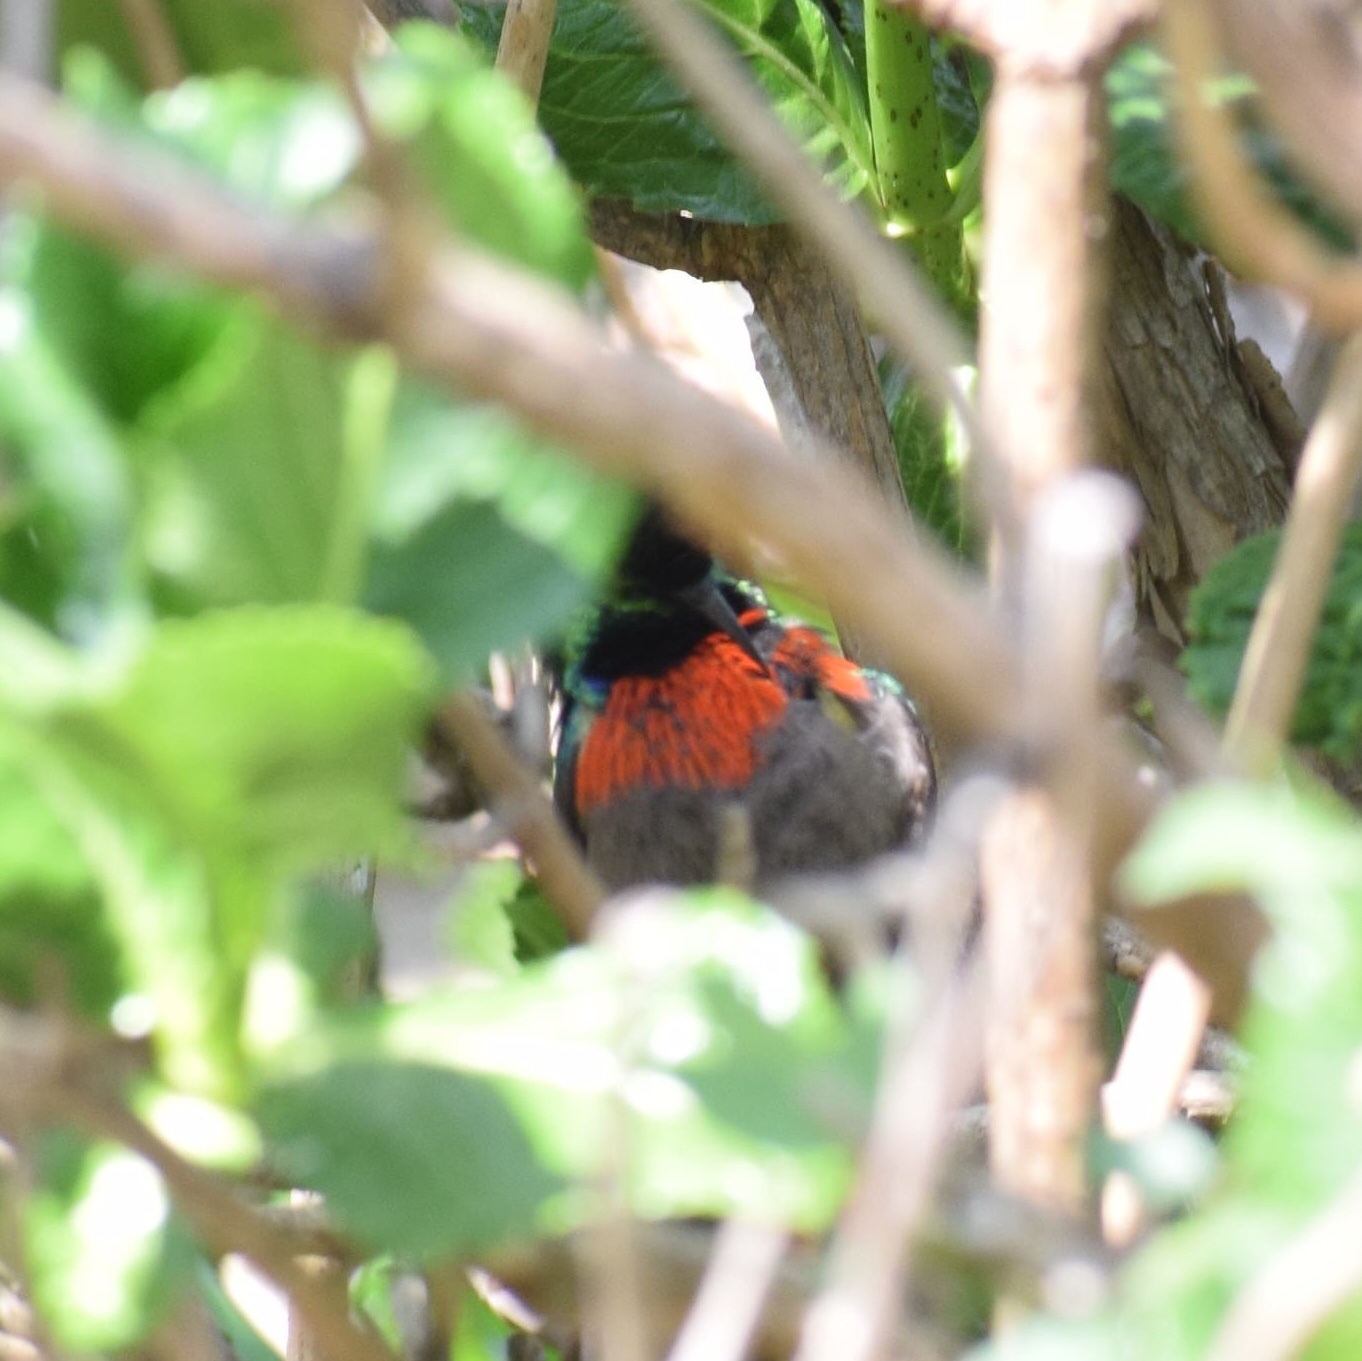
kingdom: Animalia
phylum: Chordata
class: Aves
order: Passeriformes
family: Nectariniidae
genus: Cinnyris
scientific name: Cinnyris afer
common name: Greater double-collared sunbird
